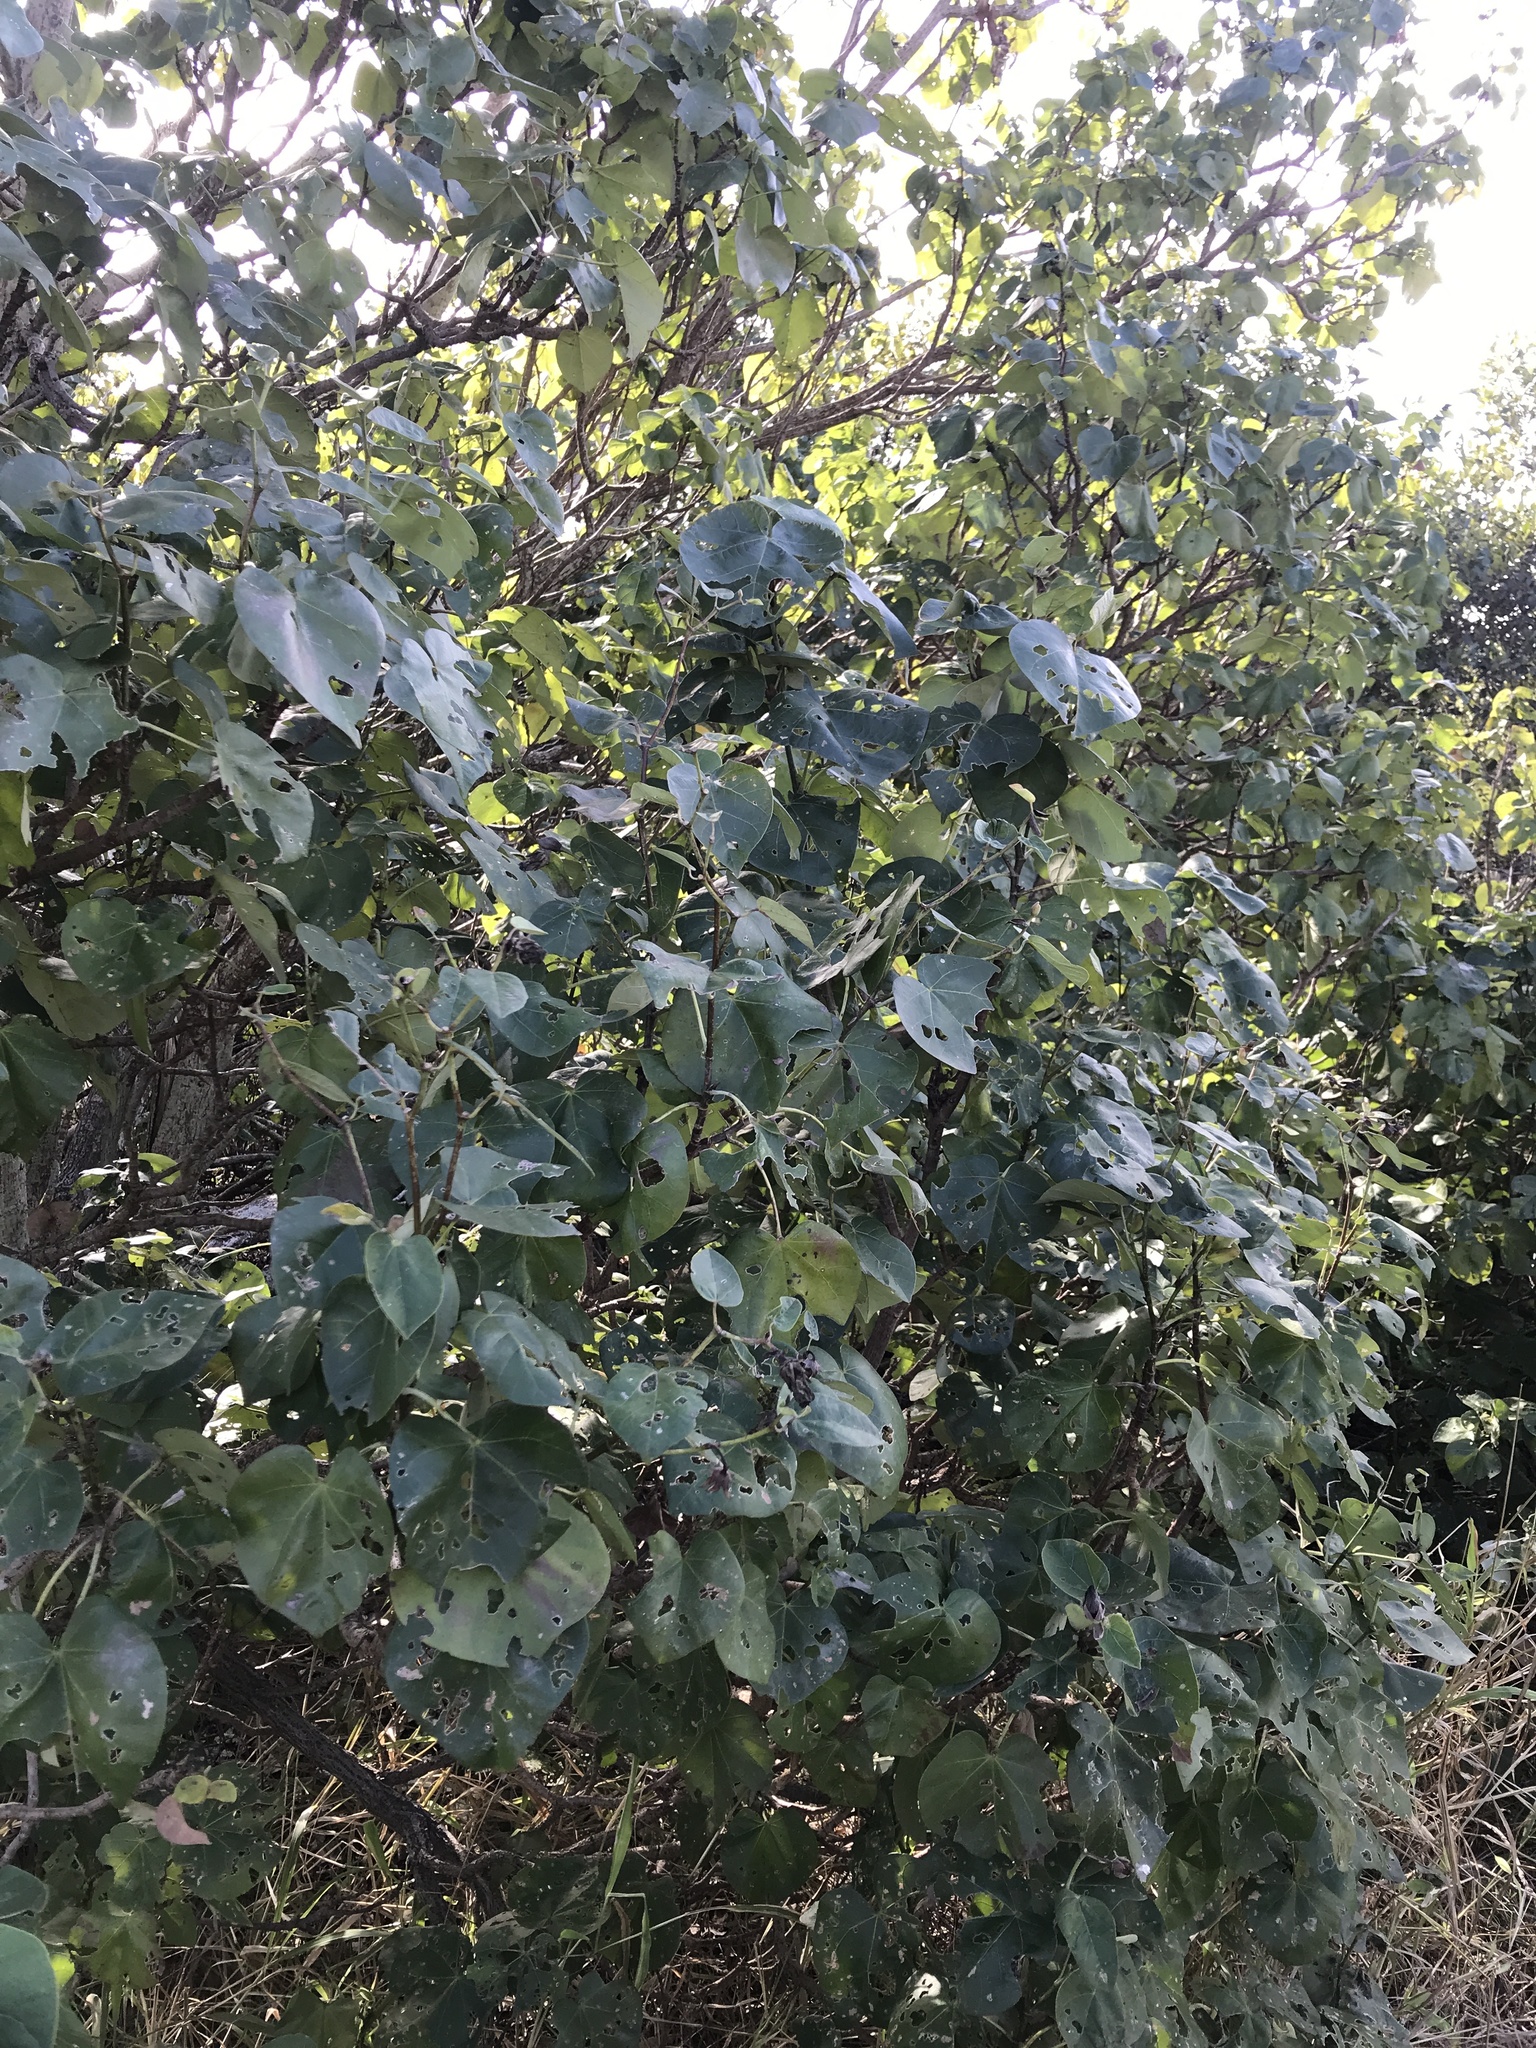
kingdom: Plantae
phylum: Tracheophyta
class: Magnoliopsida
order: Malvales
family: Malvaceae
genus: Talipariti
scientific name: Talipariti tiliaceum
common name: Sea hibiscus
